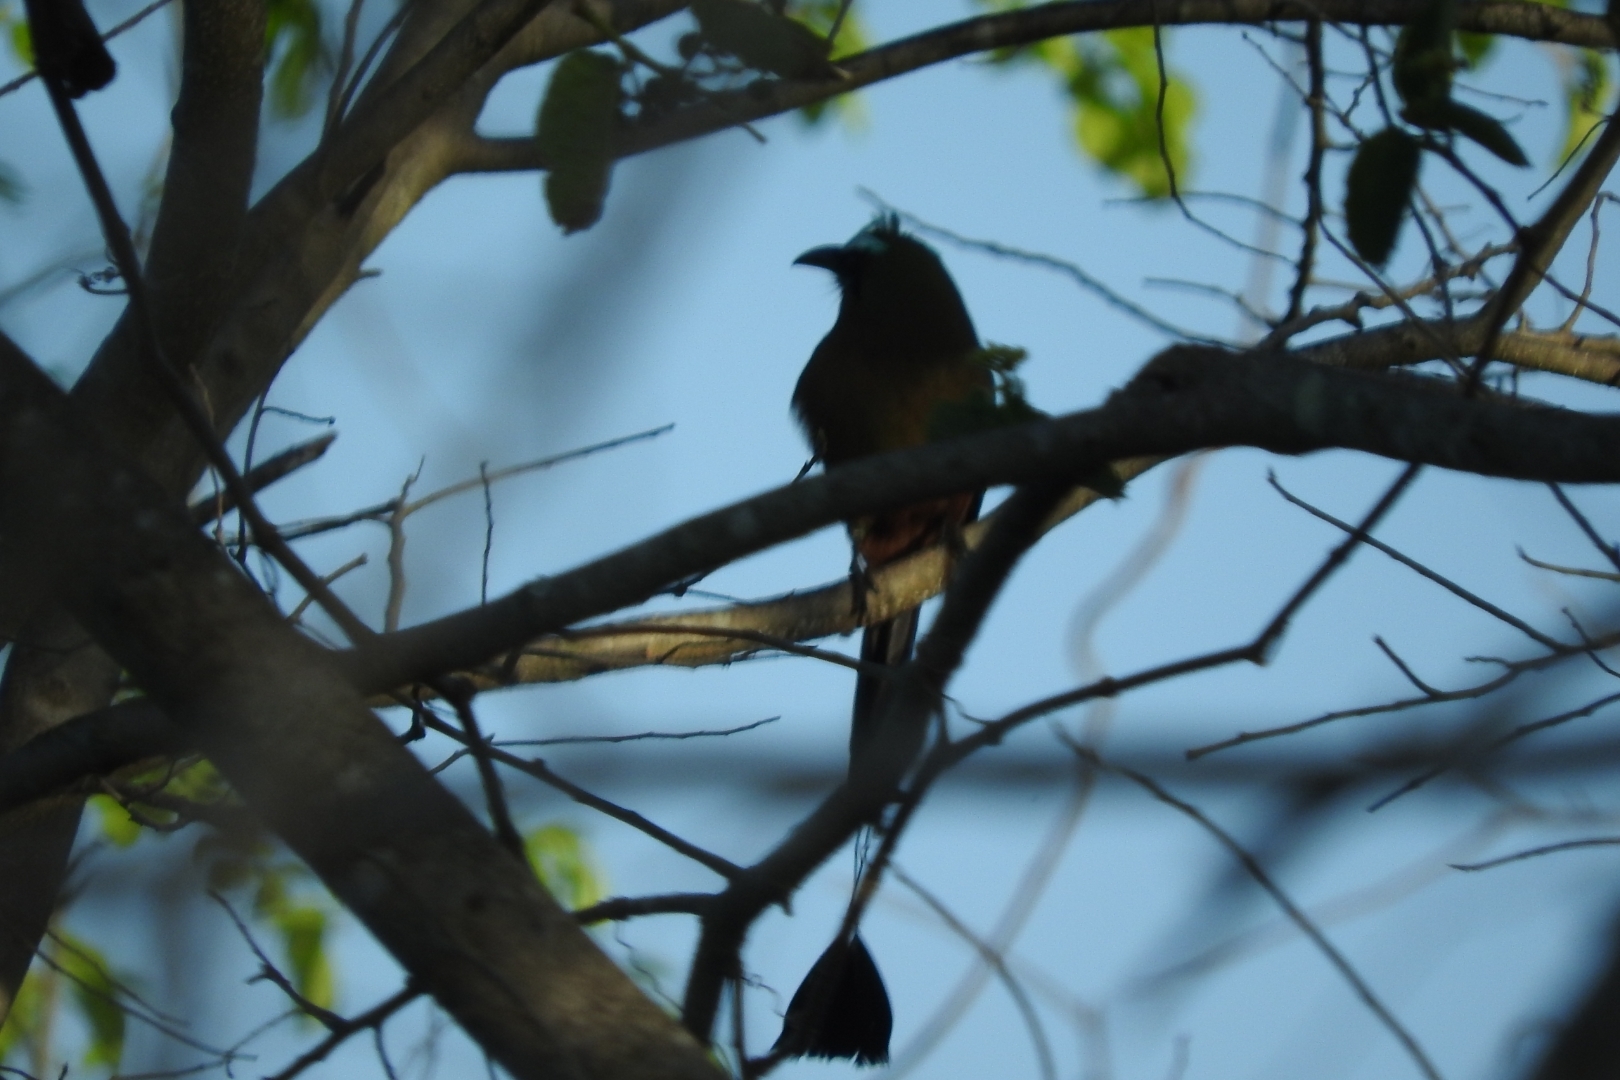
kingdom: Animalia
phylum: Chordata
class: Aves
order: Coraciiformes
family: Momotidae
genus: Eumomota
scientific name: Eumomota superciliosa
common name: Turquoise-browed motmot
